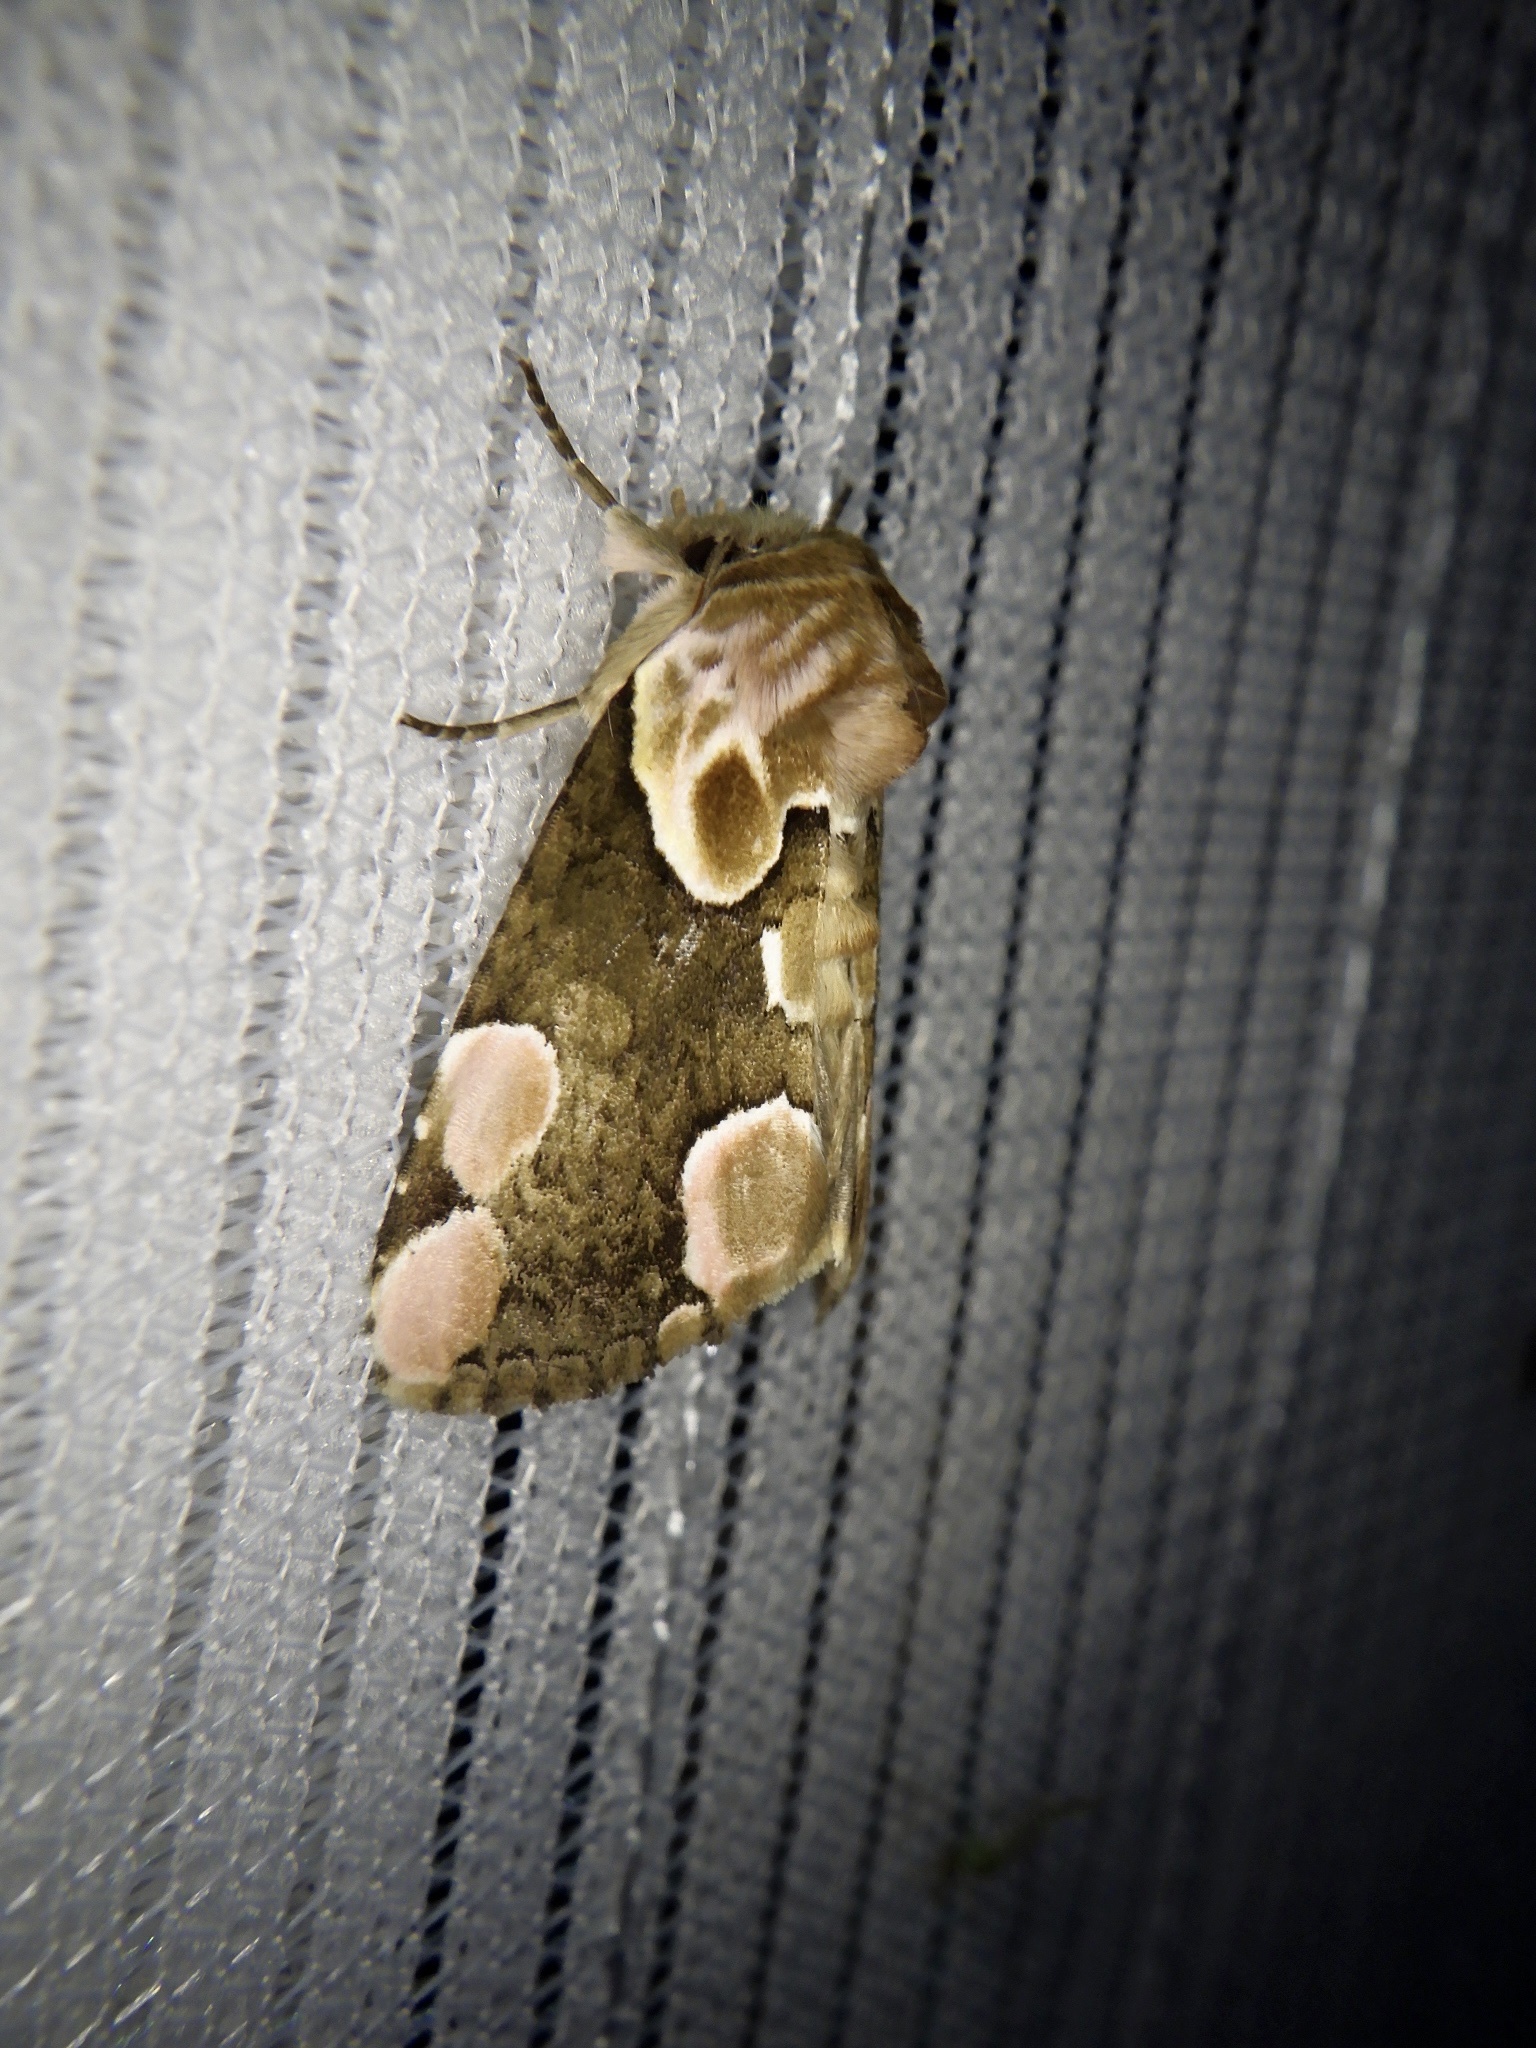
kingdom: Animalia
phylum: Arthropoda
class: Insecta
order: Lepidoptera
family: Drepanidae
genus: Thyatira
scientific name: Thyatira batis
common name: Peach blossom
